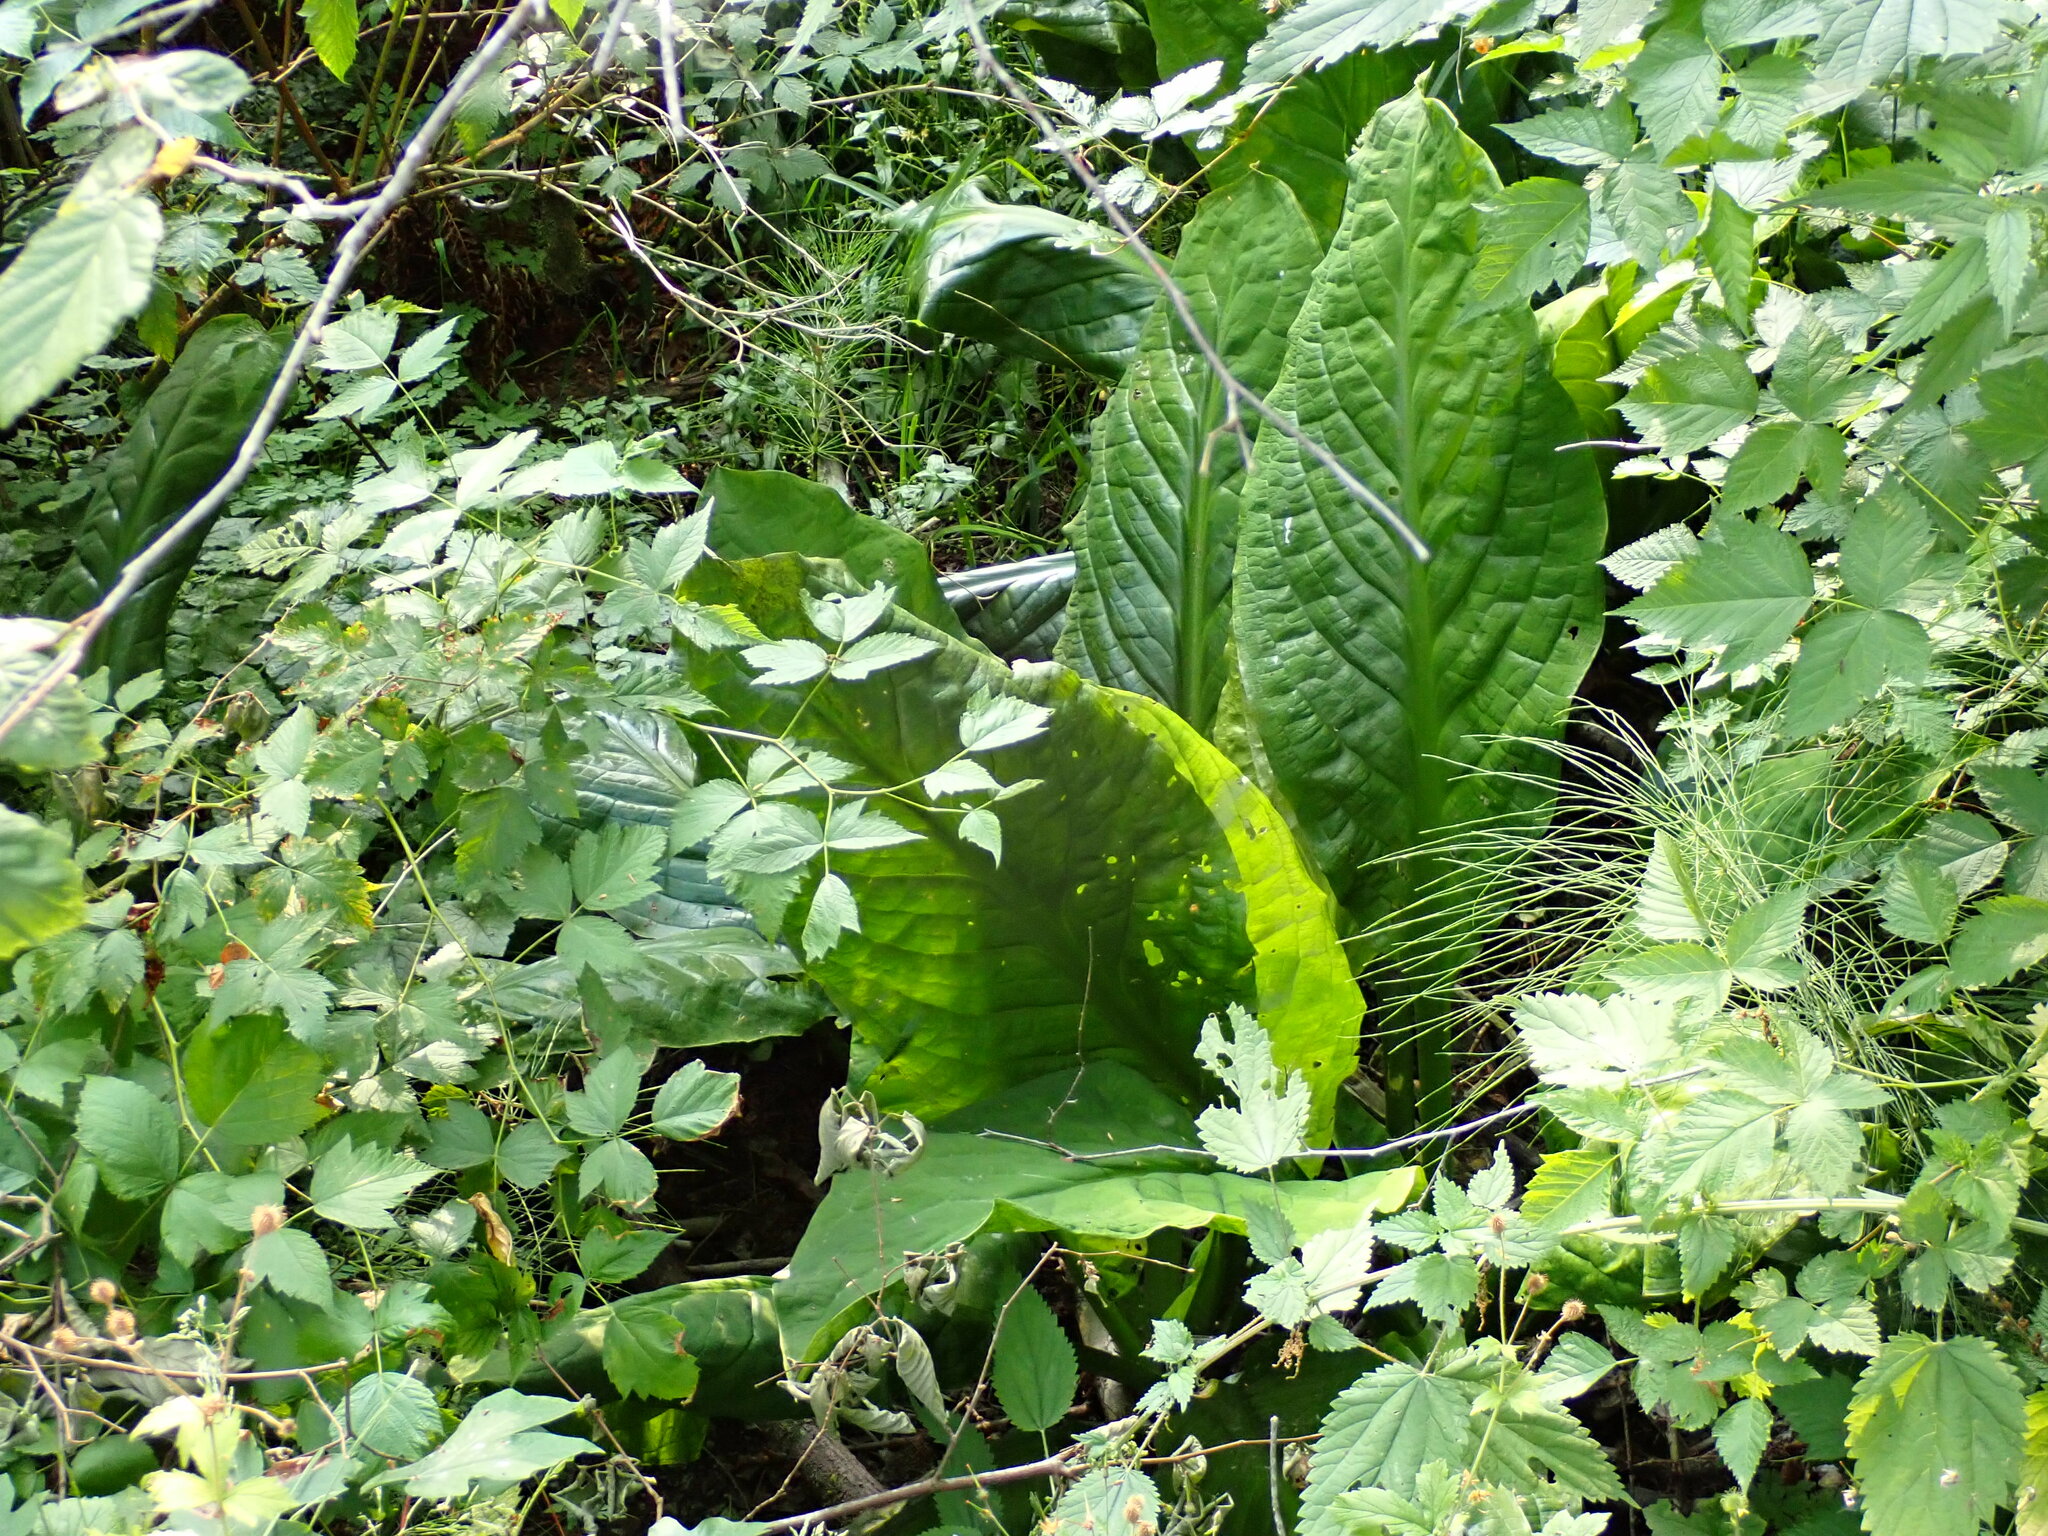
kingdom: Plantae
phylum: Tracheophyta
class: Liliopsida
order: Alismatales
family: Araceae
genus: Lysichiton
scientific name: Lysichiton americanus
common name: American skunk cabbage
